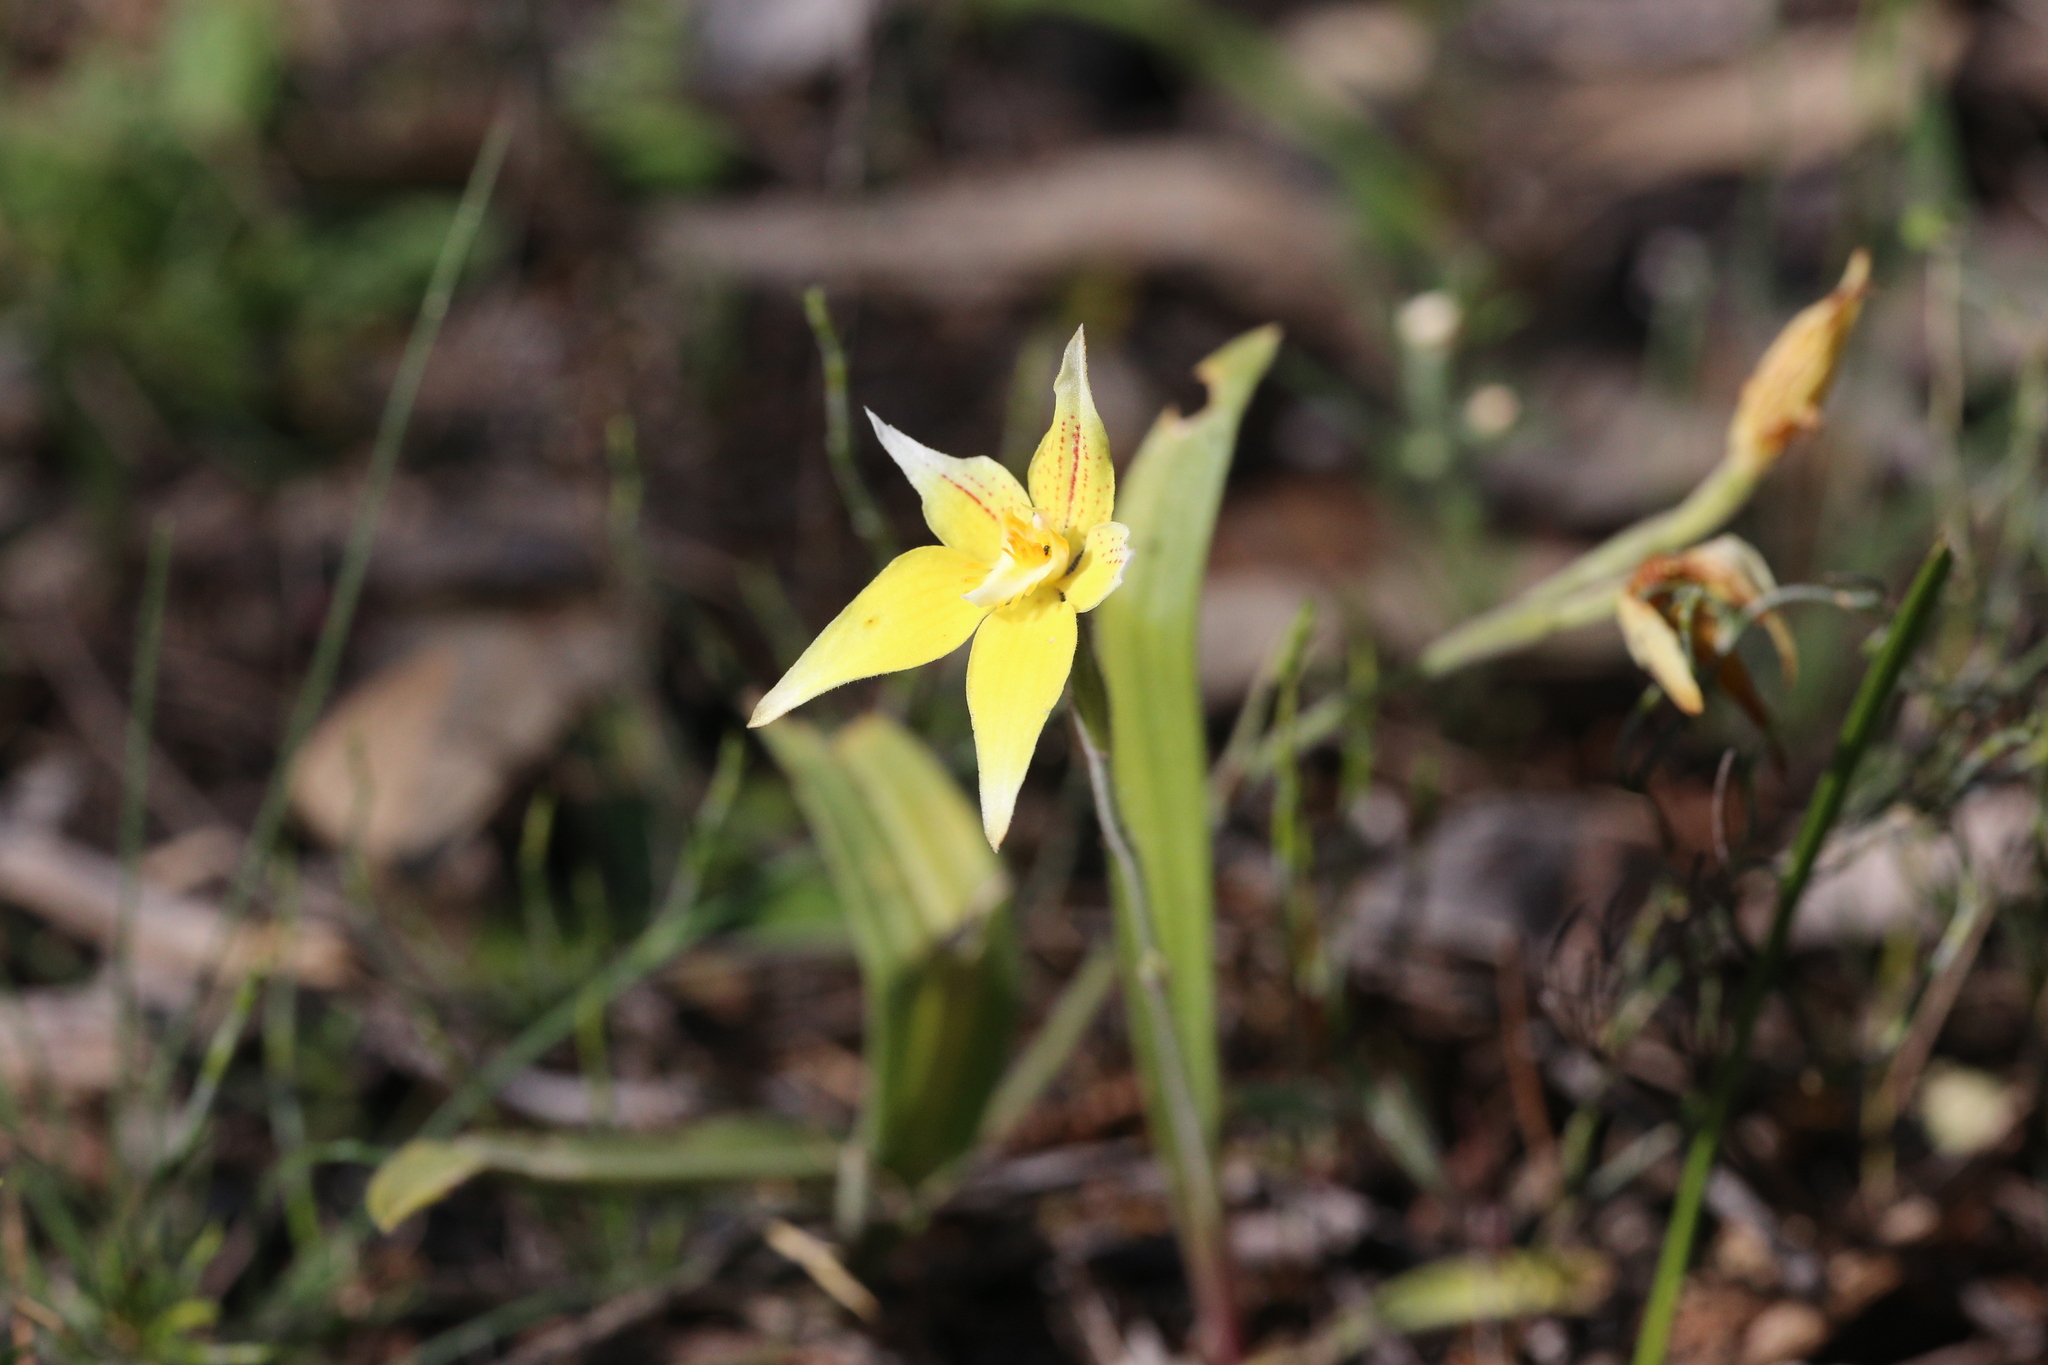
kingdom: Plantae
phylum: Tracheophyta
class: Liliopsida
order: Asparagales
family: Orchidaceae
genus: Caladenia
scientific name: Caladenia flava
